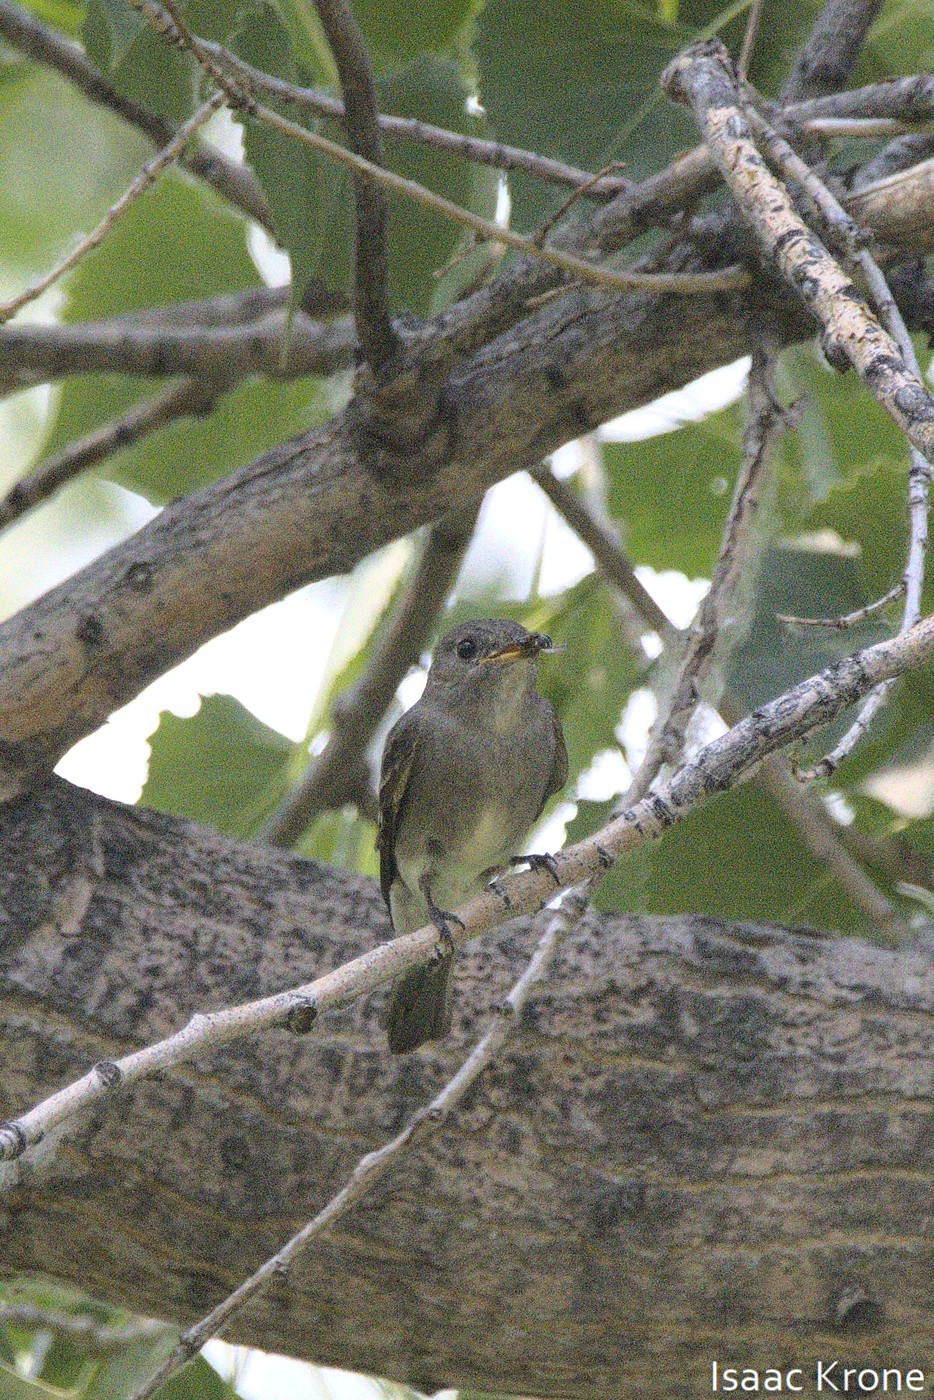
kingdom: Animalia
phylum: Chordata
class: Aves
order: Passeriformes
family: Tyrannidae
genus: Contopus
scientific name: Contopus sordidulus
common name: Western wood-pewee
